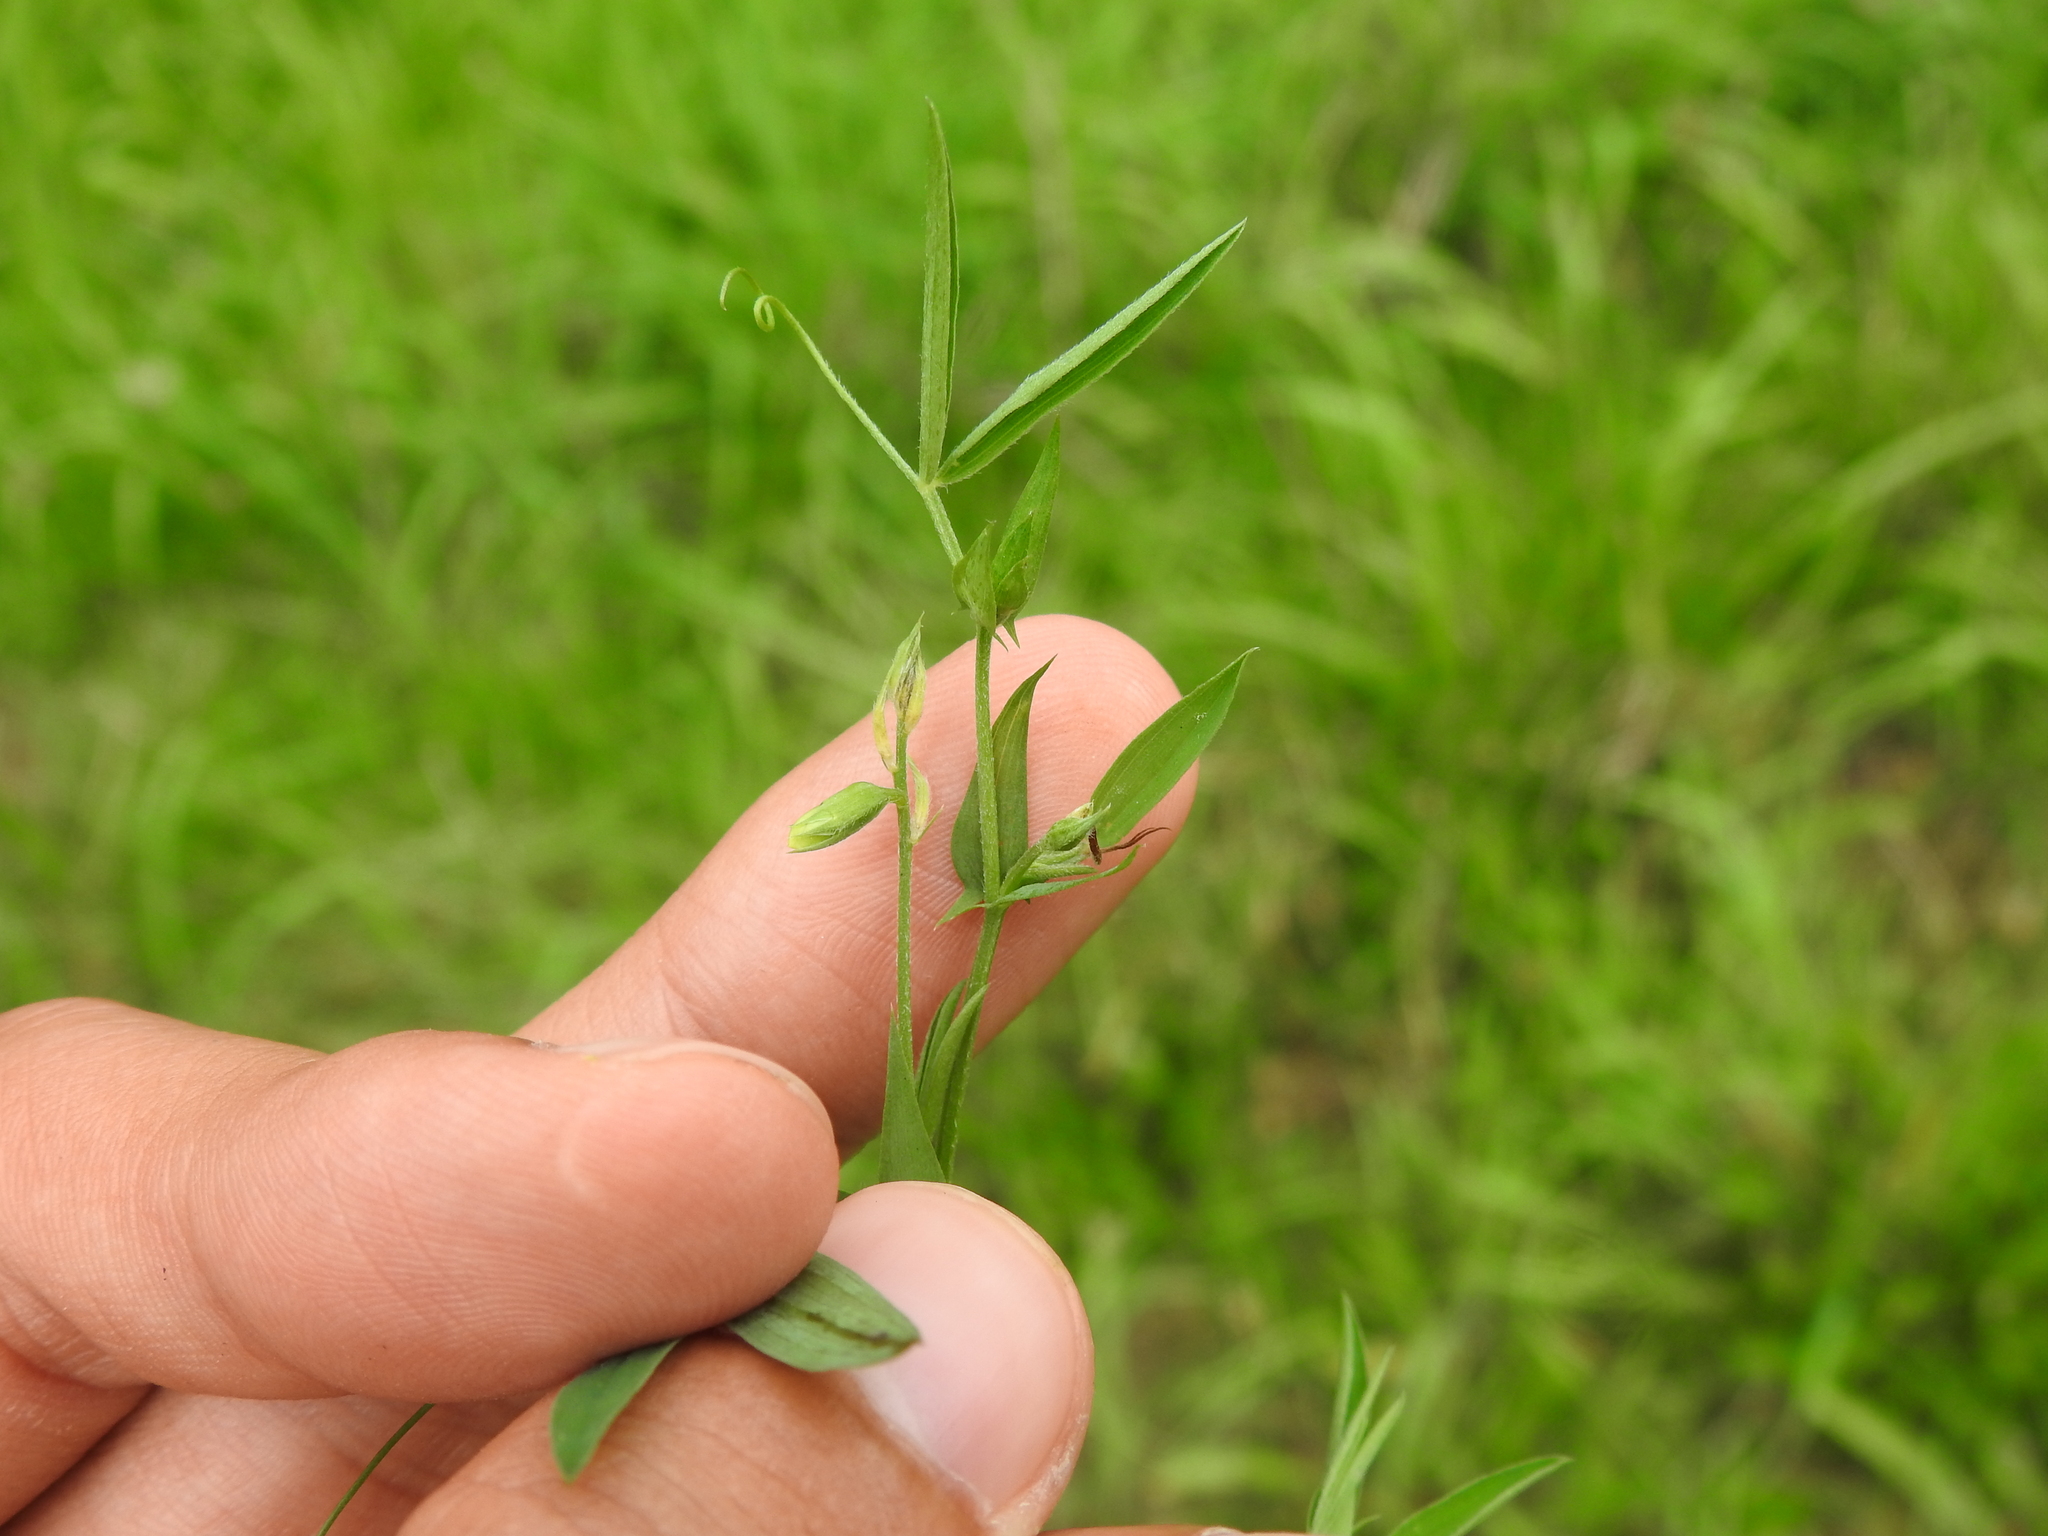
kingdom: Plantae
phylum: Tracheophyta
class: Magnoliopsida
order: Fabales
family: Fabaceae
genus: Lathyrus
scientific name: Lathyrus pratensis
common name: Meadow vetchling
